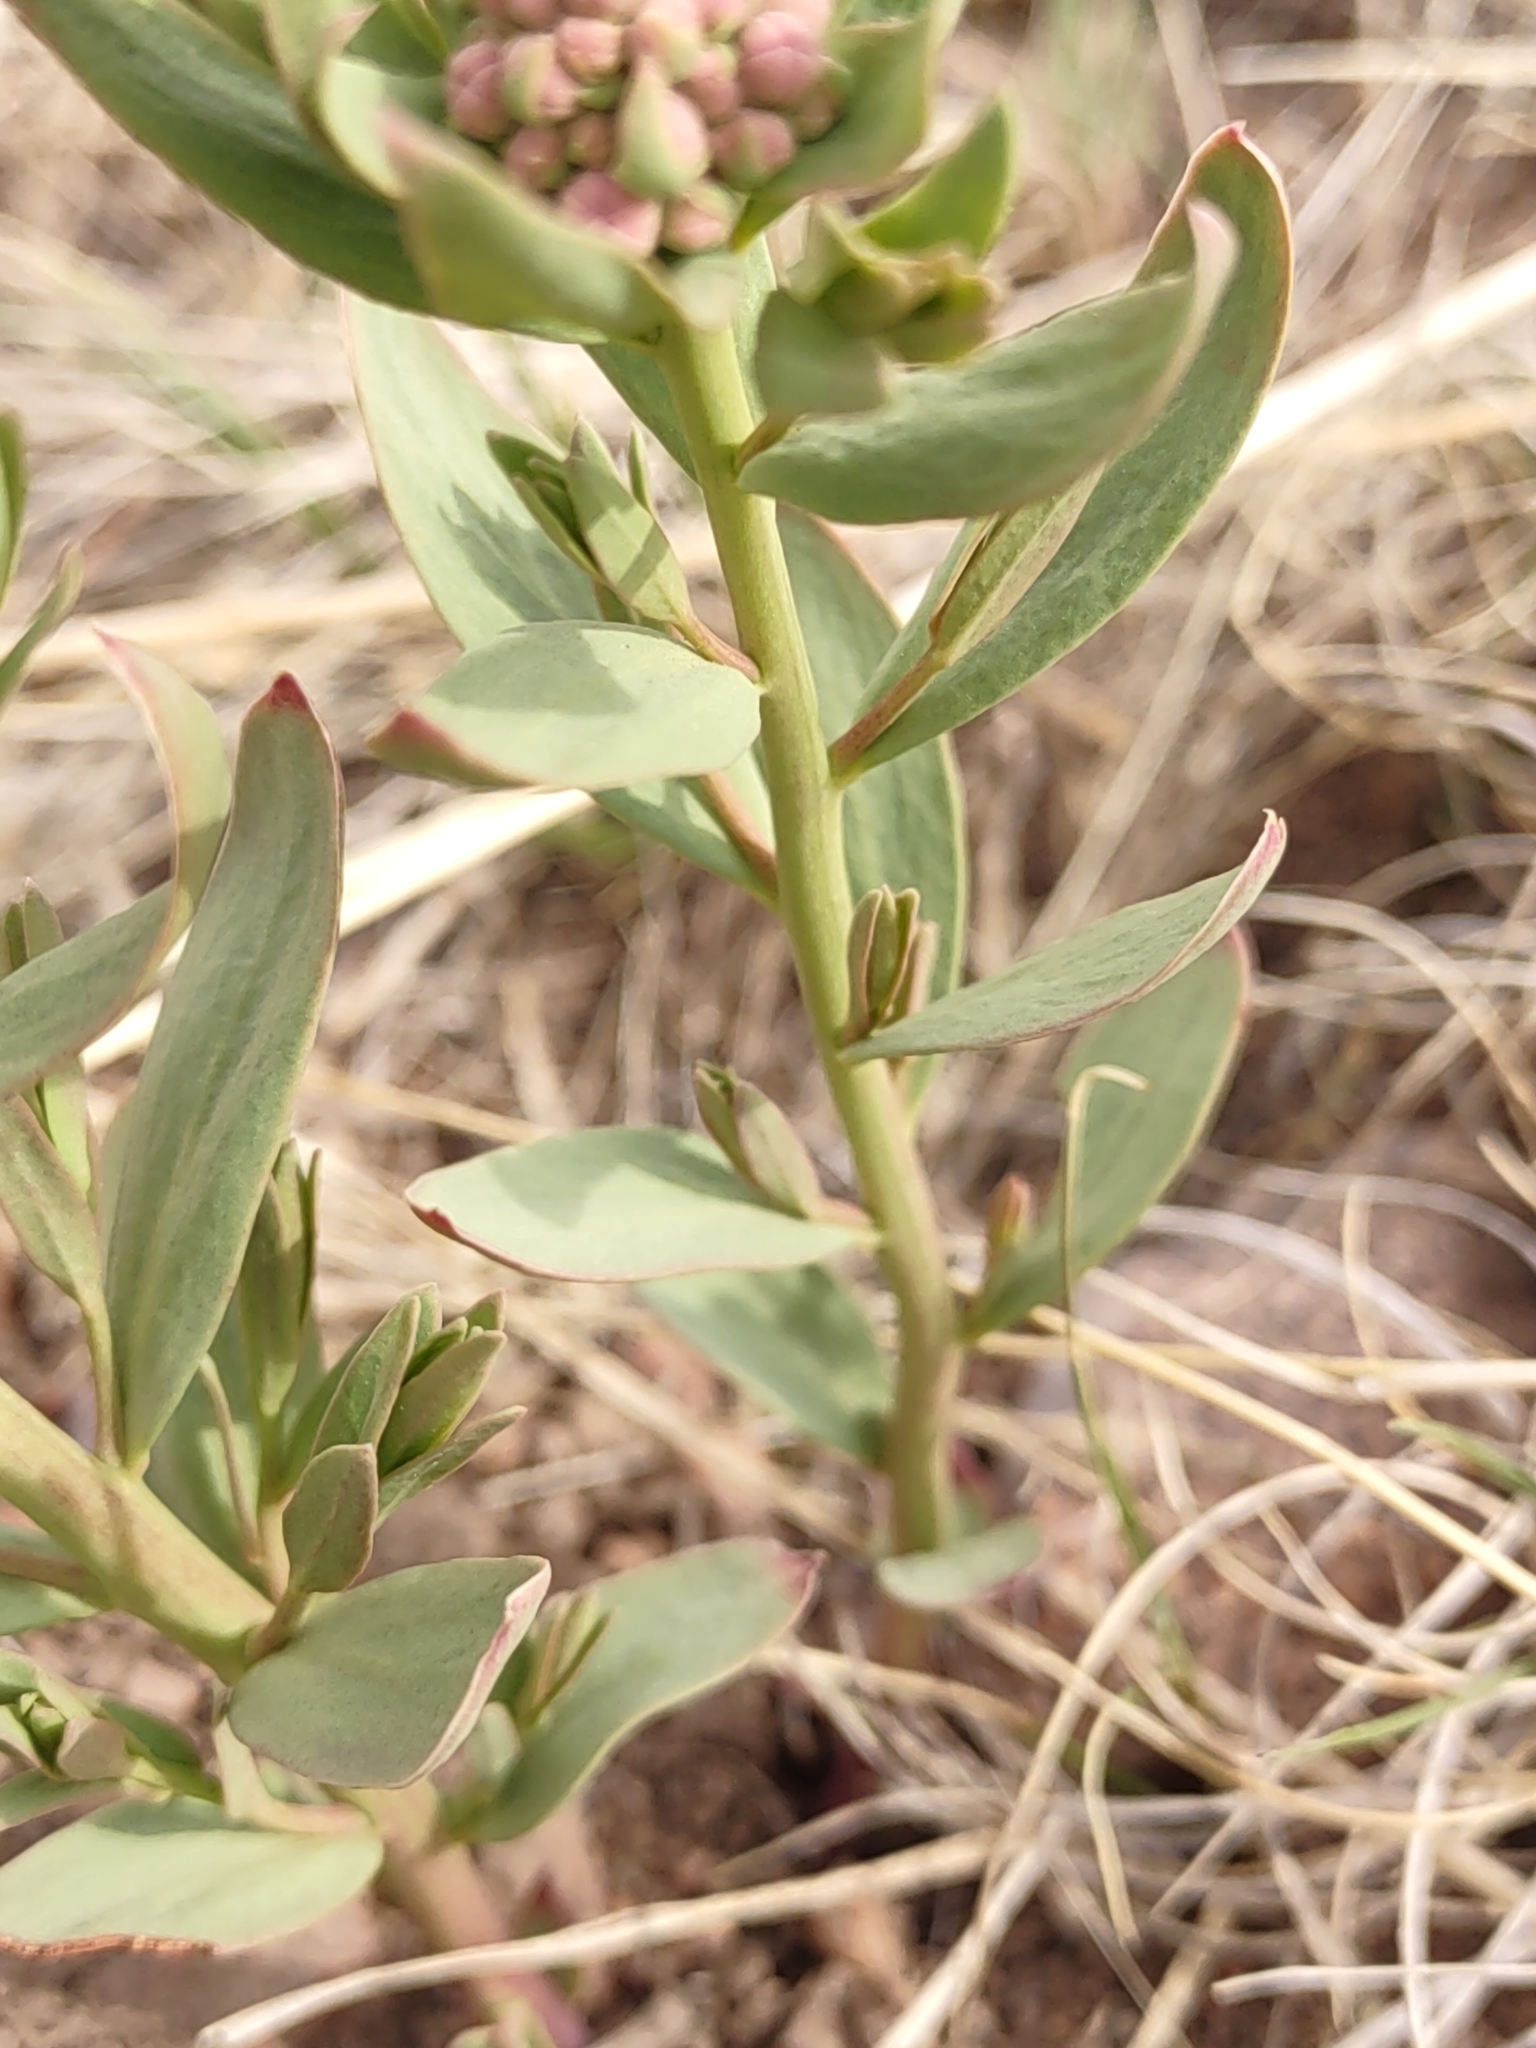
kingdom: Plantae
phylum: Tracheophyta
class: Magnoliopsida
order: Santalales
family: Comandraceae
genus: Comandra
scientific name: Comandra umbellata
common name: Bastard toadflax
